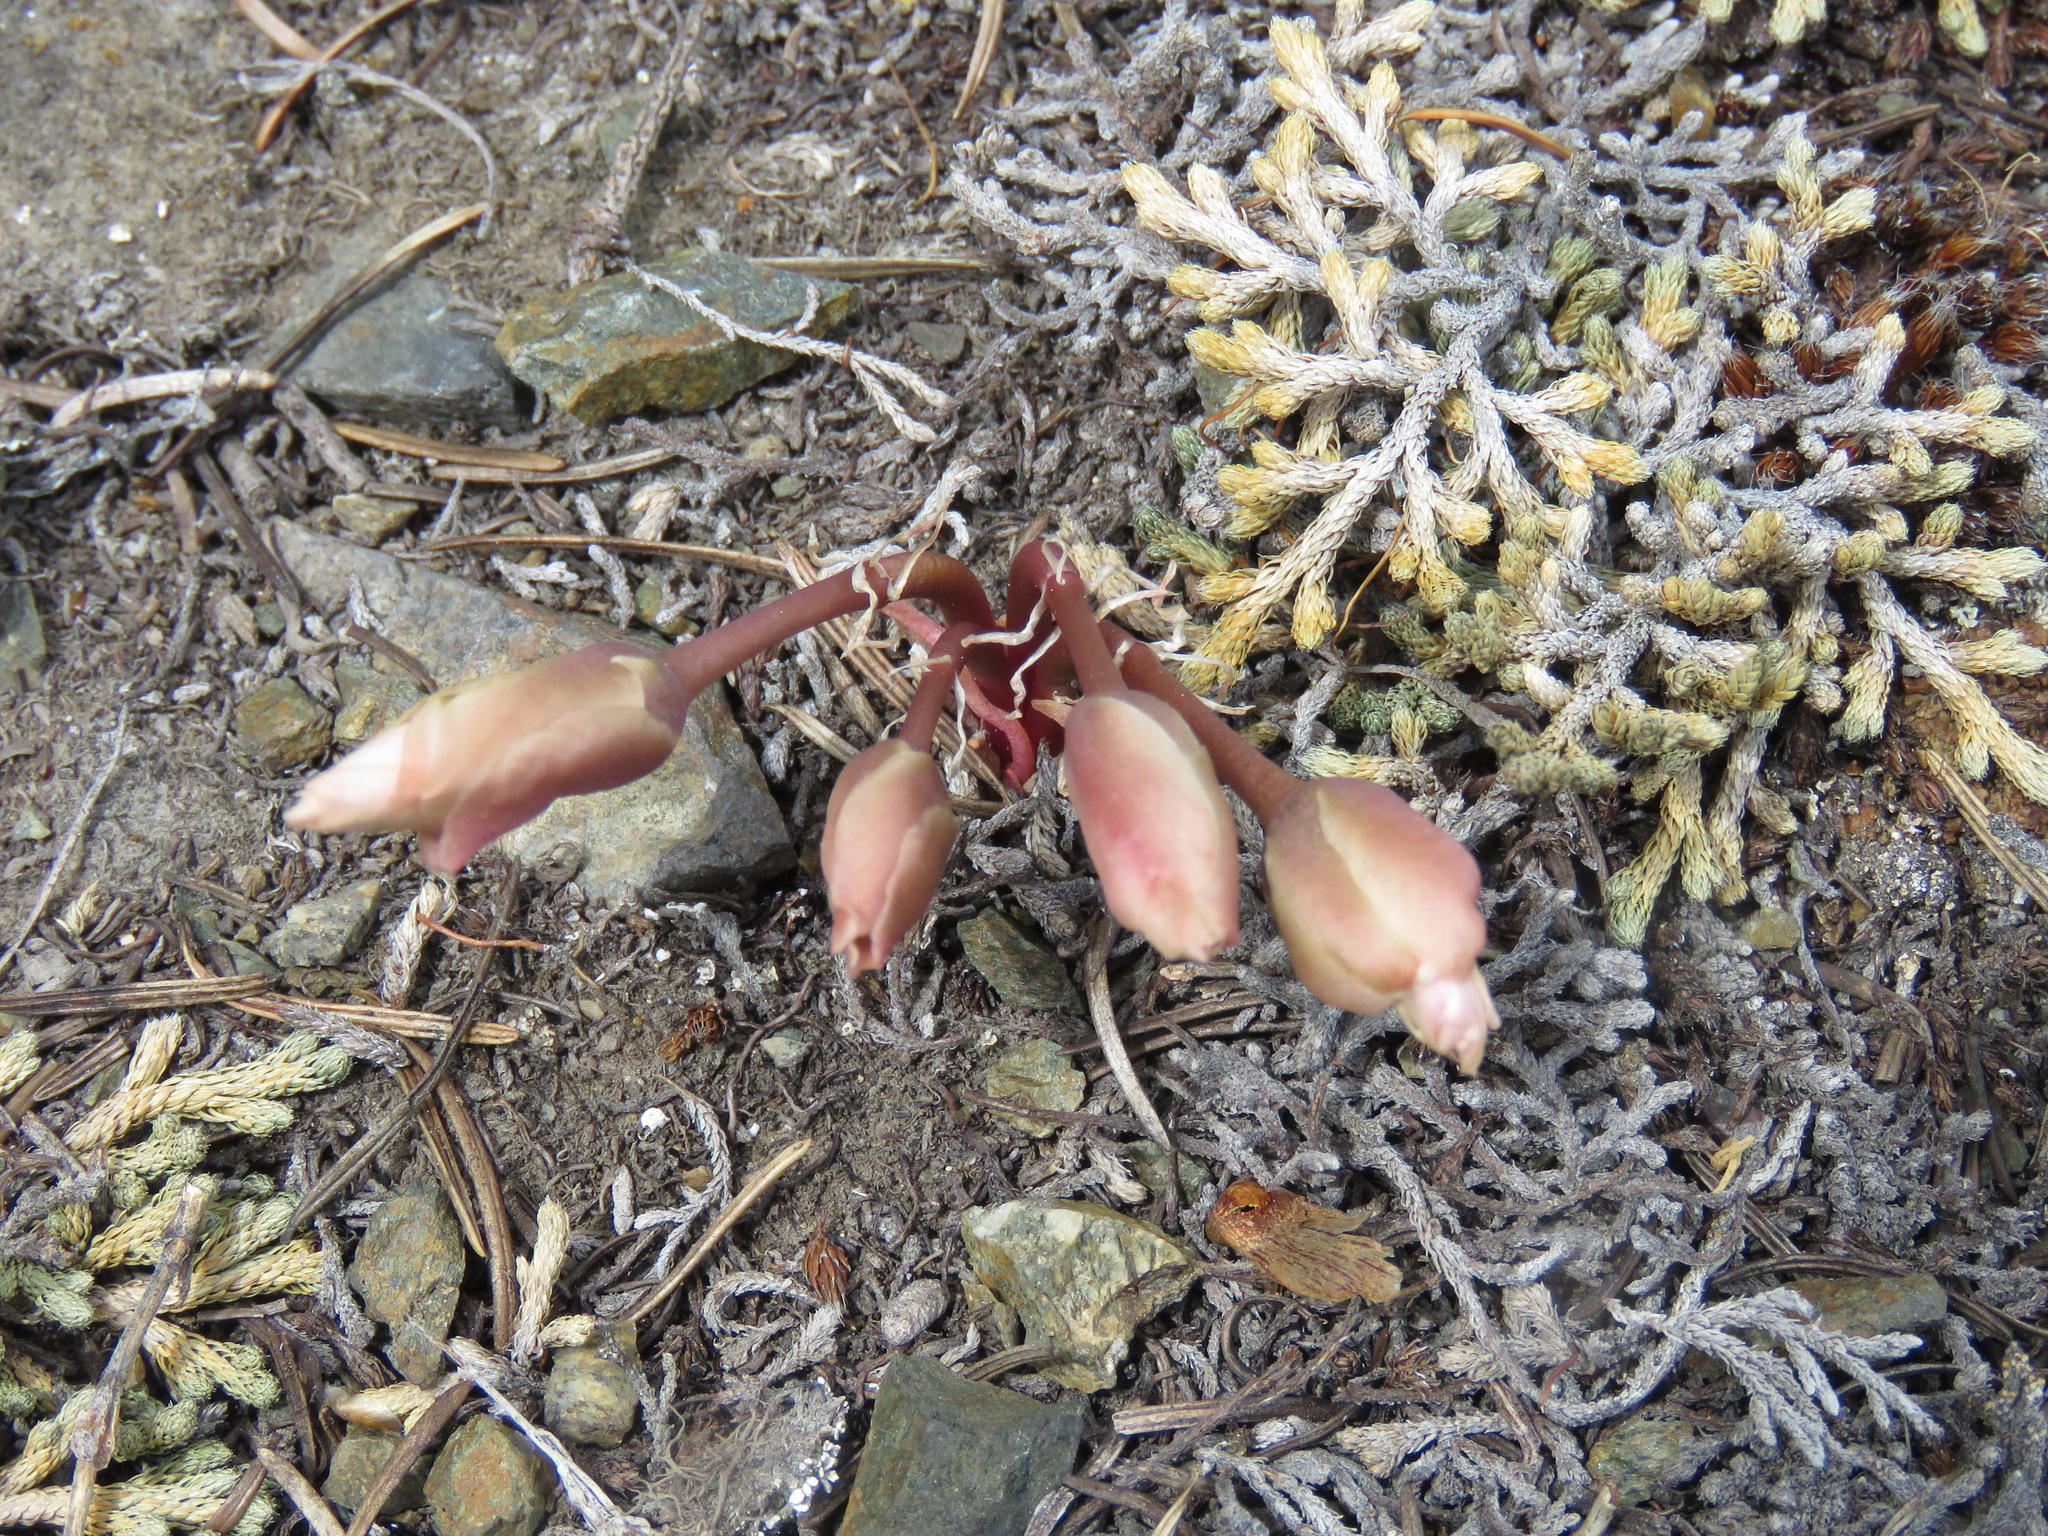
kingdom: Plantae
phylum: Tracheophyta
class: Magnoliopsida
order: Caryophyllales
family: Montiaceae
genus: Lewisia
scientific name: Lewisia rediviva
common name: Bitter-root
